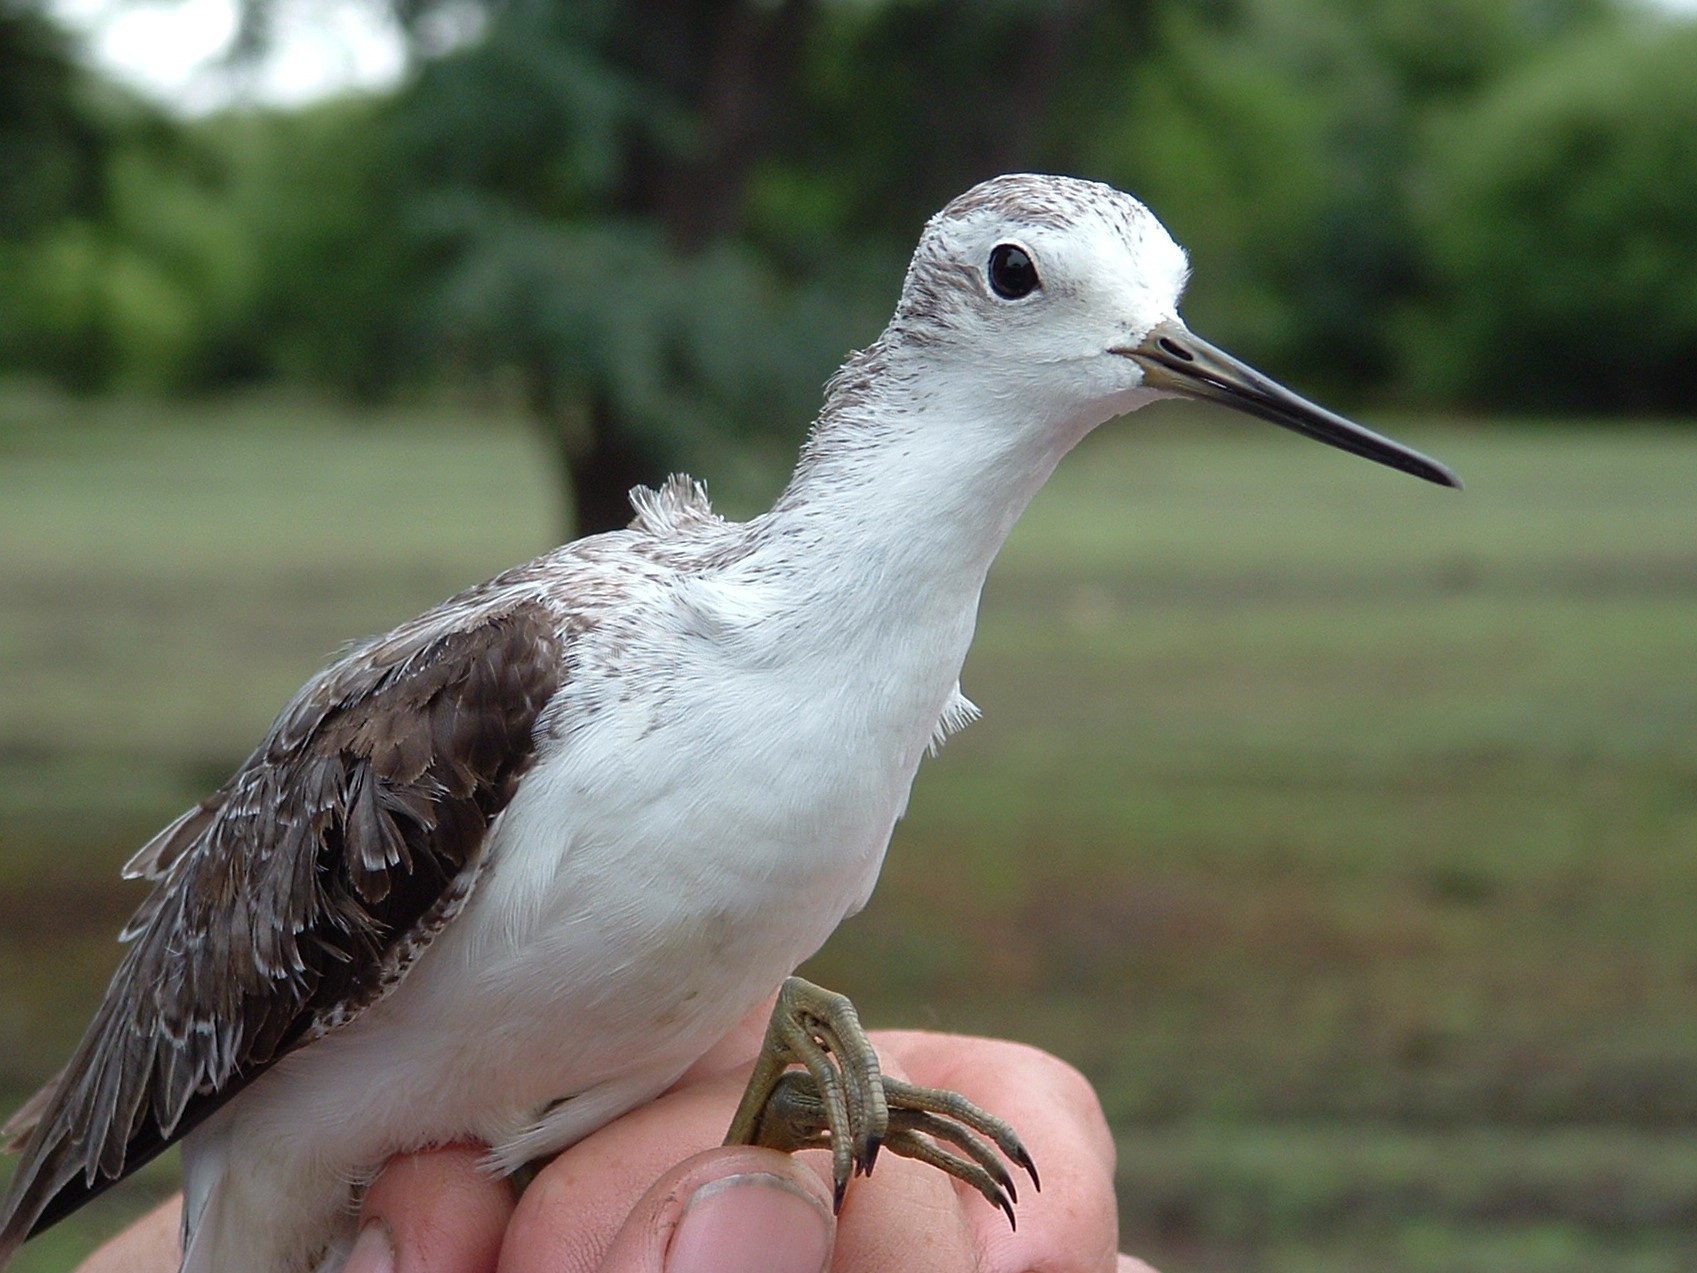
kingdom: Animalia
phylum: Chordata
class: Aves
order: Charadriiformes
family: Scolopacidae
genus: Tringa
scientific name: Tringa stagnatilis
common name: Marsh sandpiper
